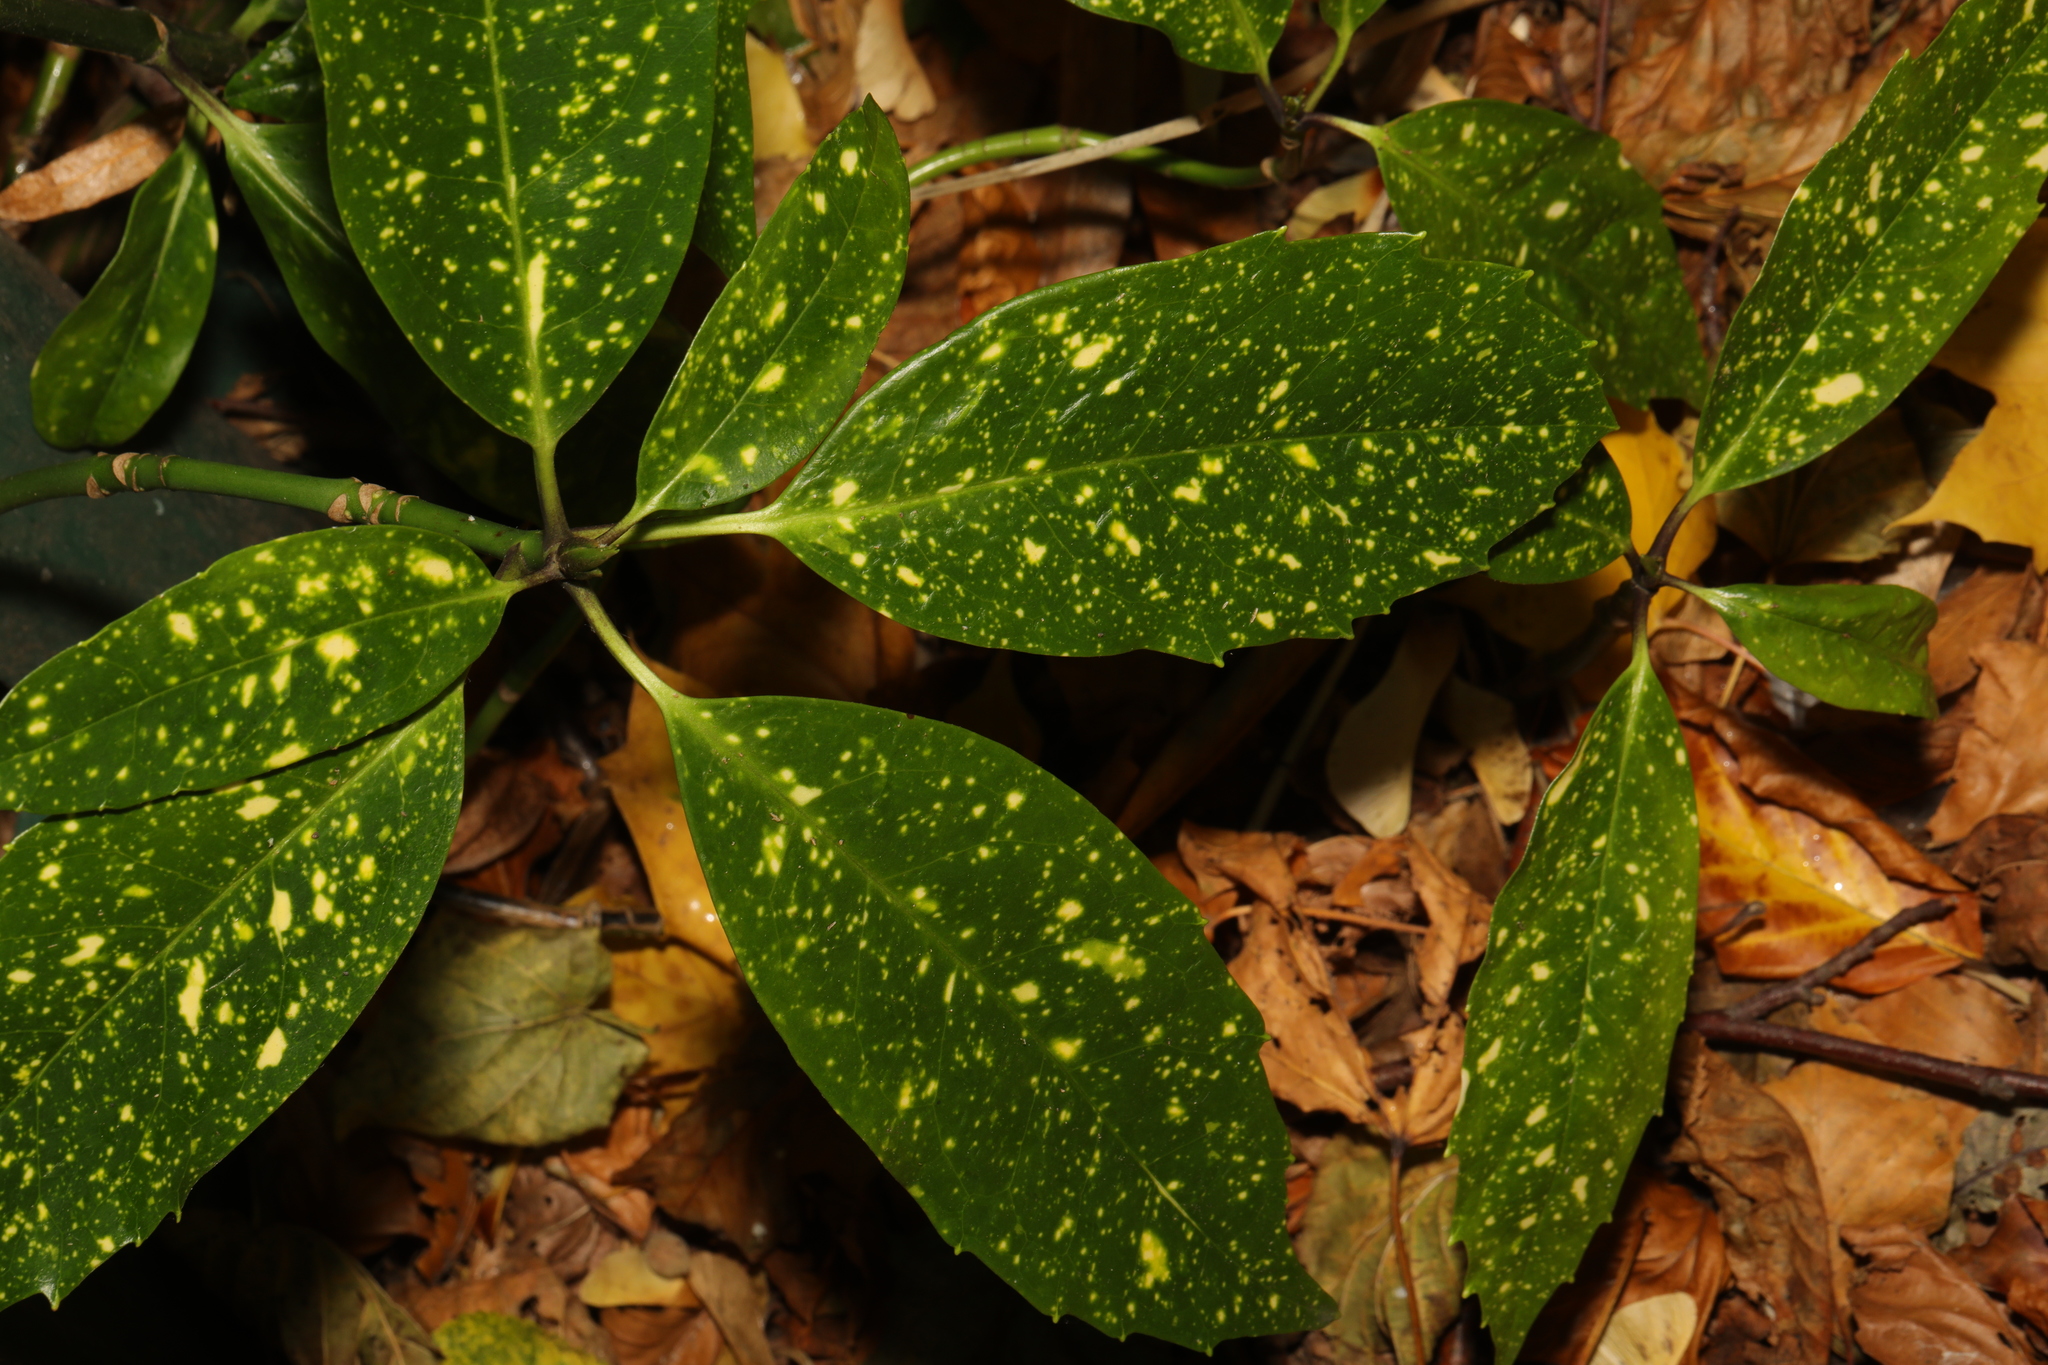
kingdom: Plantae
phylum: Tracheophyta
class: Magnoliopsida
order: Garryales
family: Garryaceae
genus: Aucuba
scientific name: Aucuba japonica
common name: Spotted-laurel
